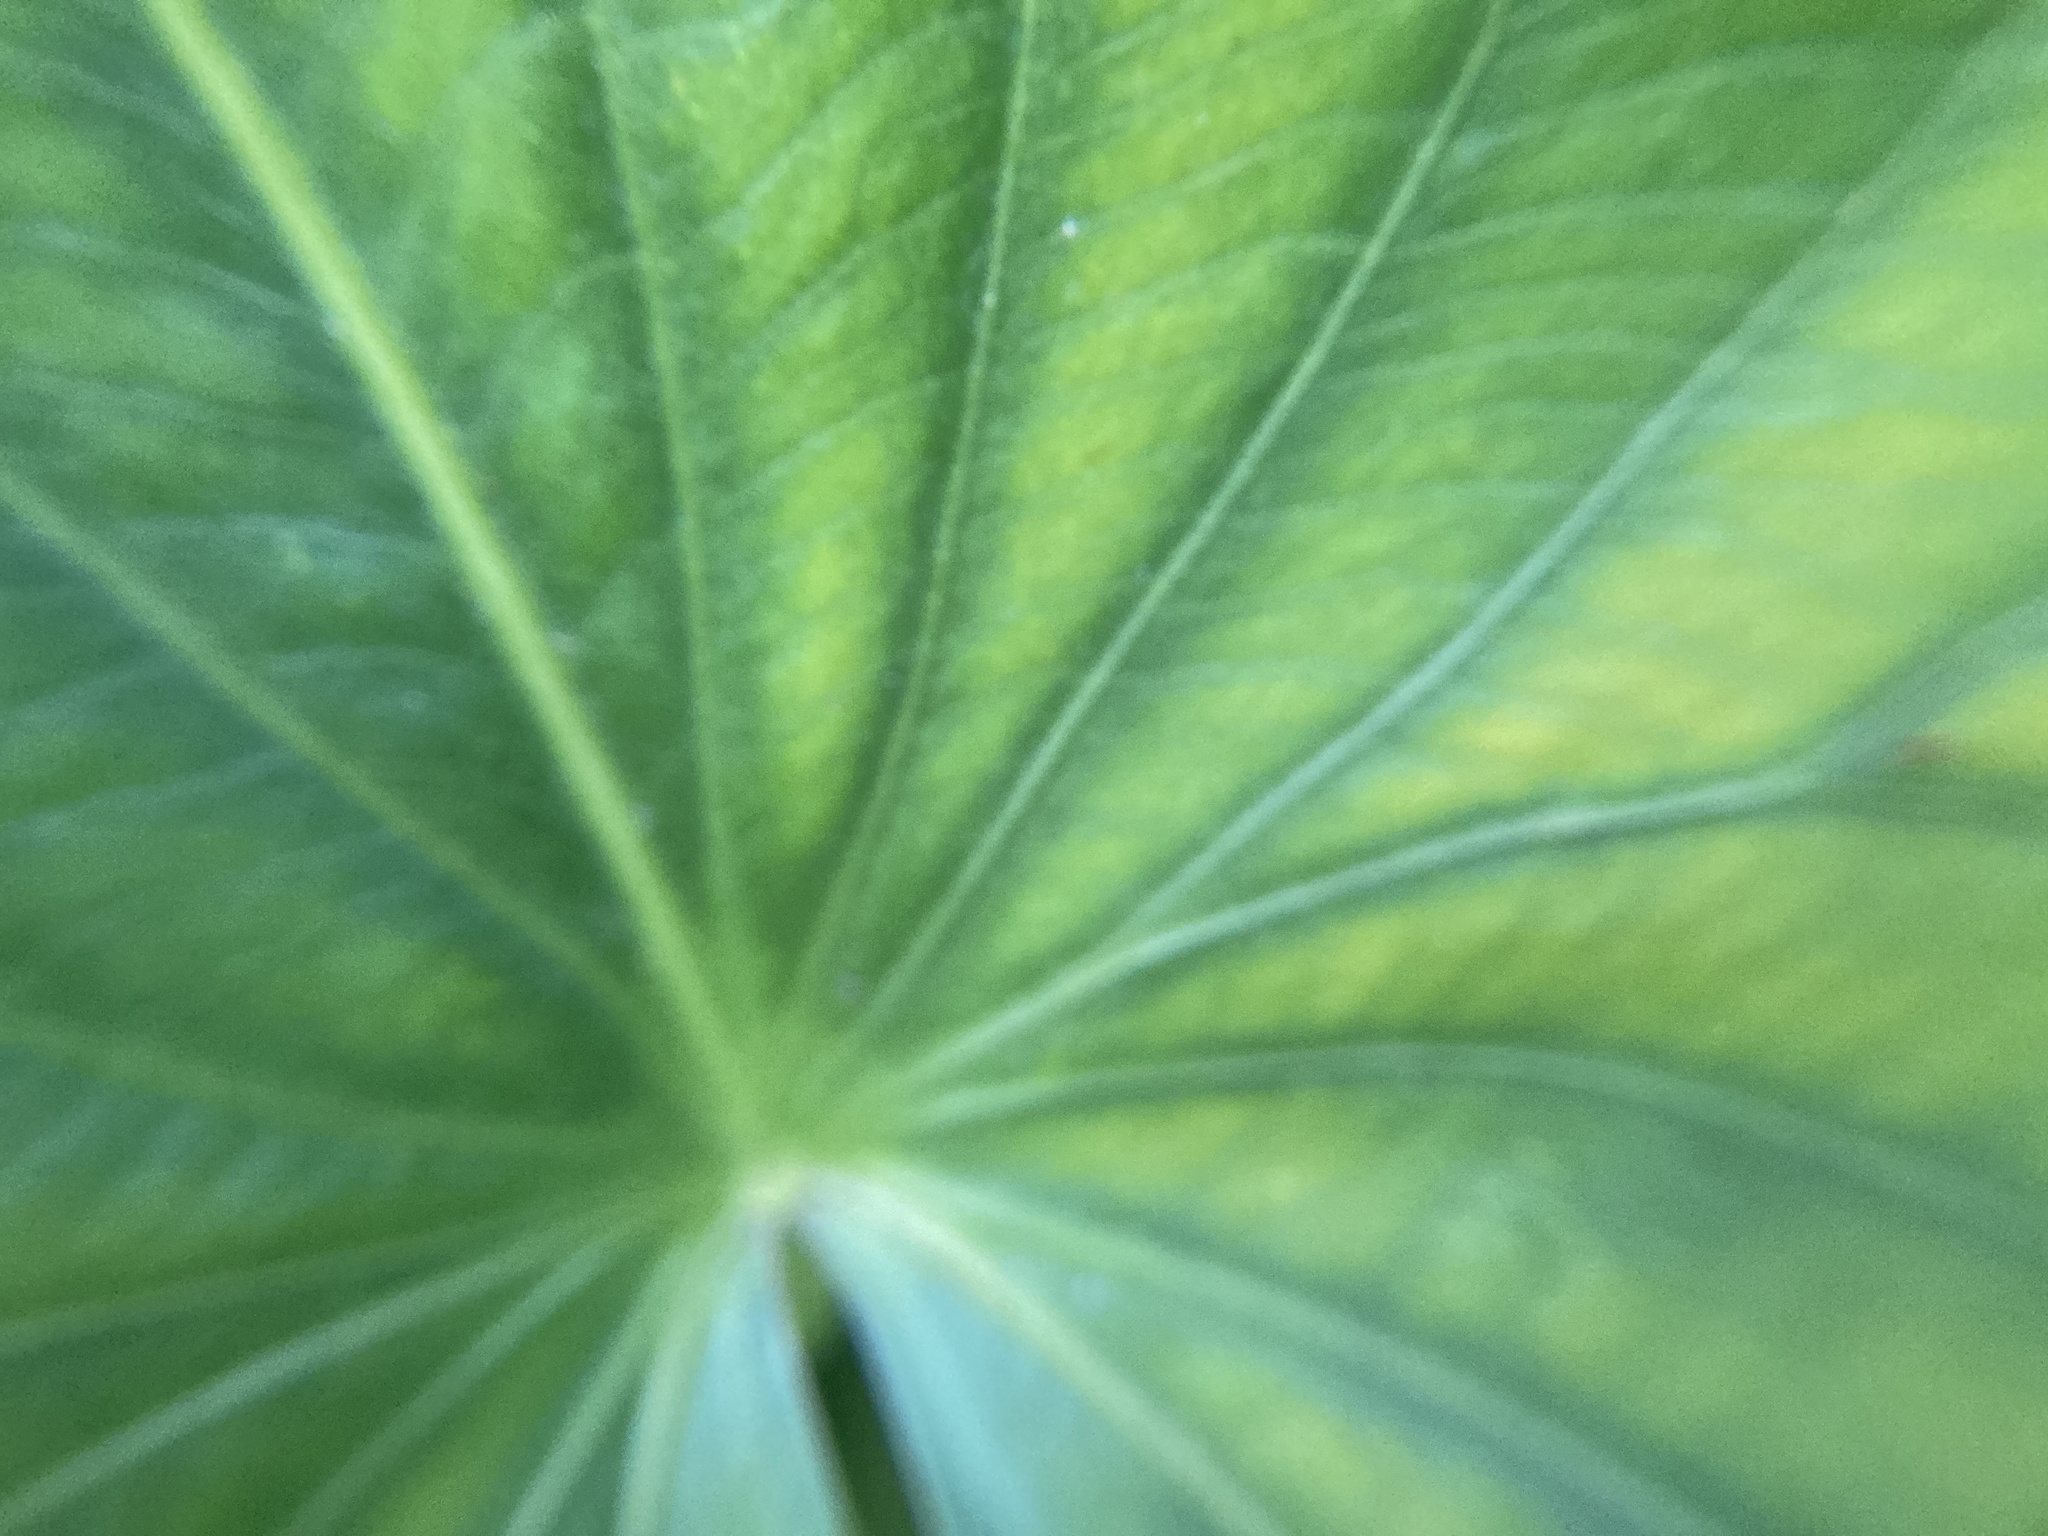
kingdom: Plantae
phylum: Tracheophyta
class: Liliopsida
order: Alismatales
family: Alismataceae
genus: Sagittaria
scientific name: Sagittaria latifolia
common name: Duck-potato
